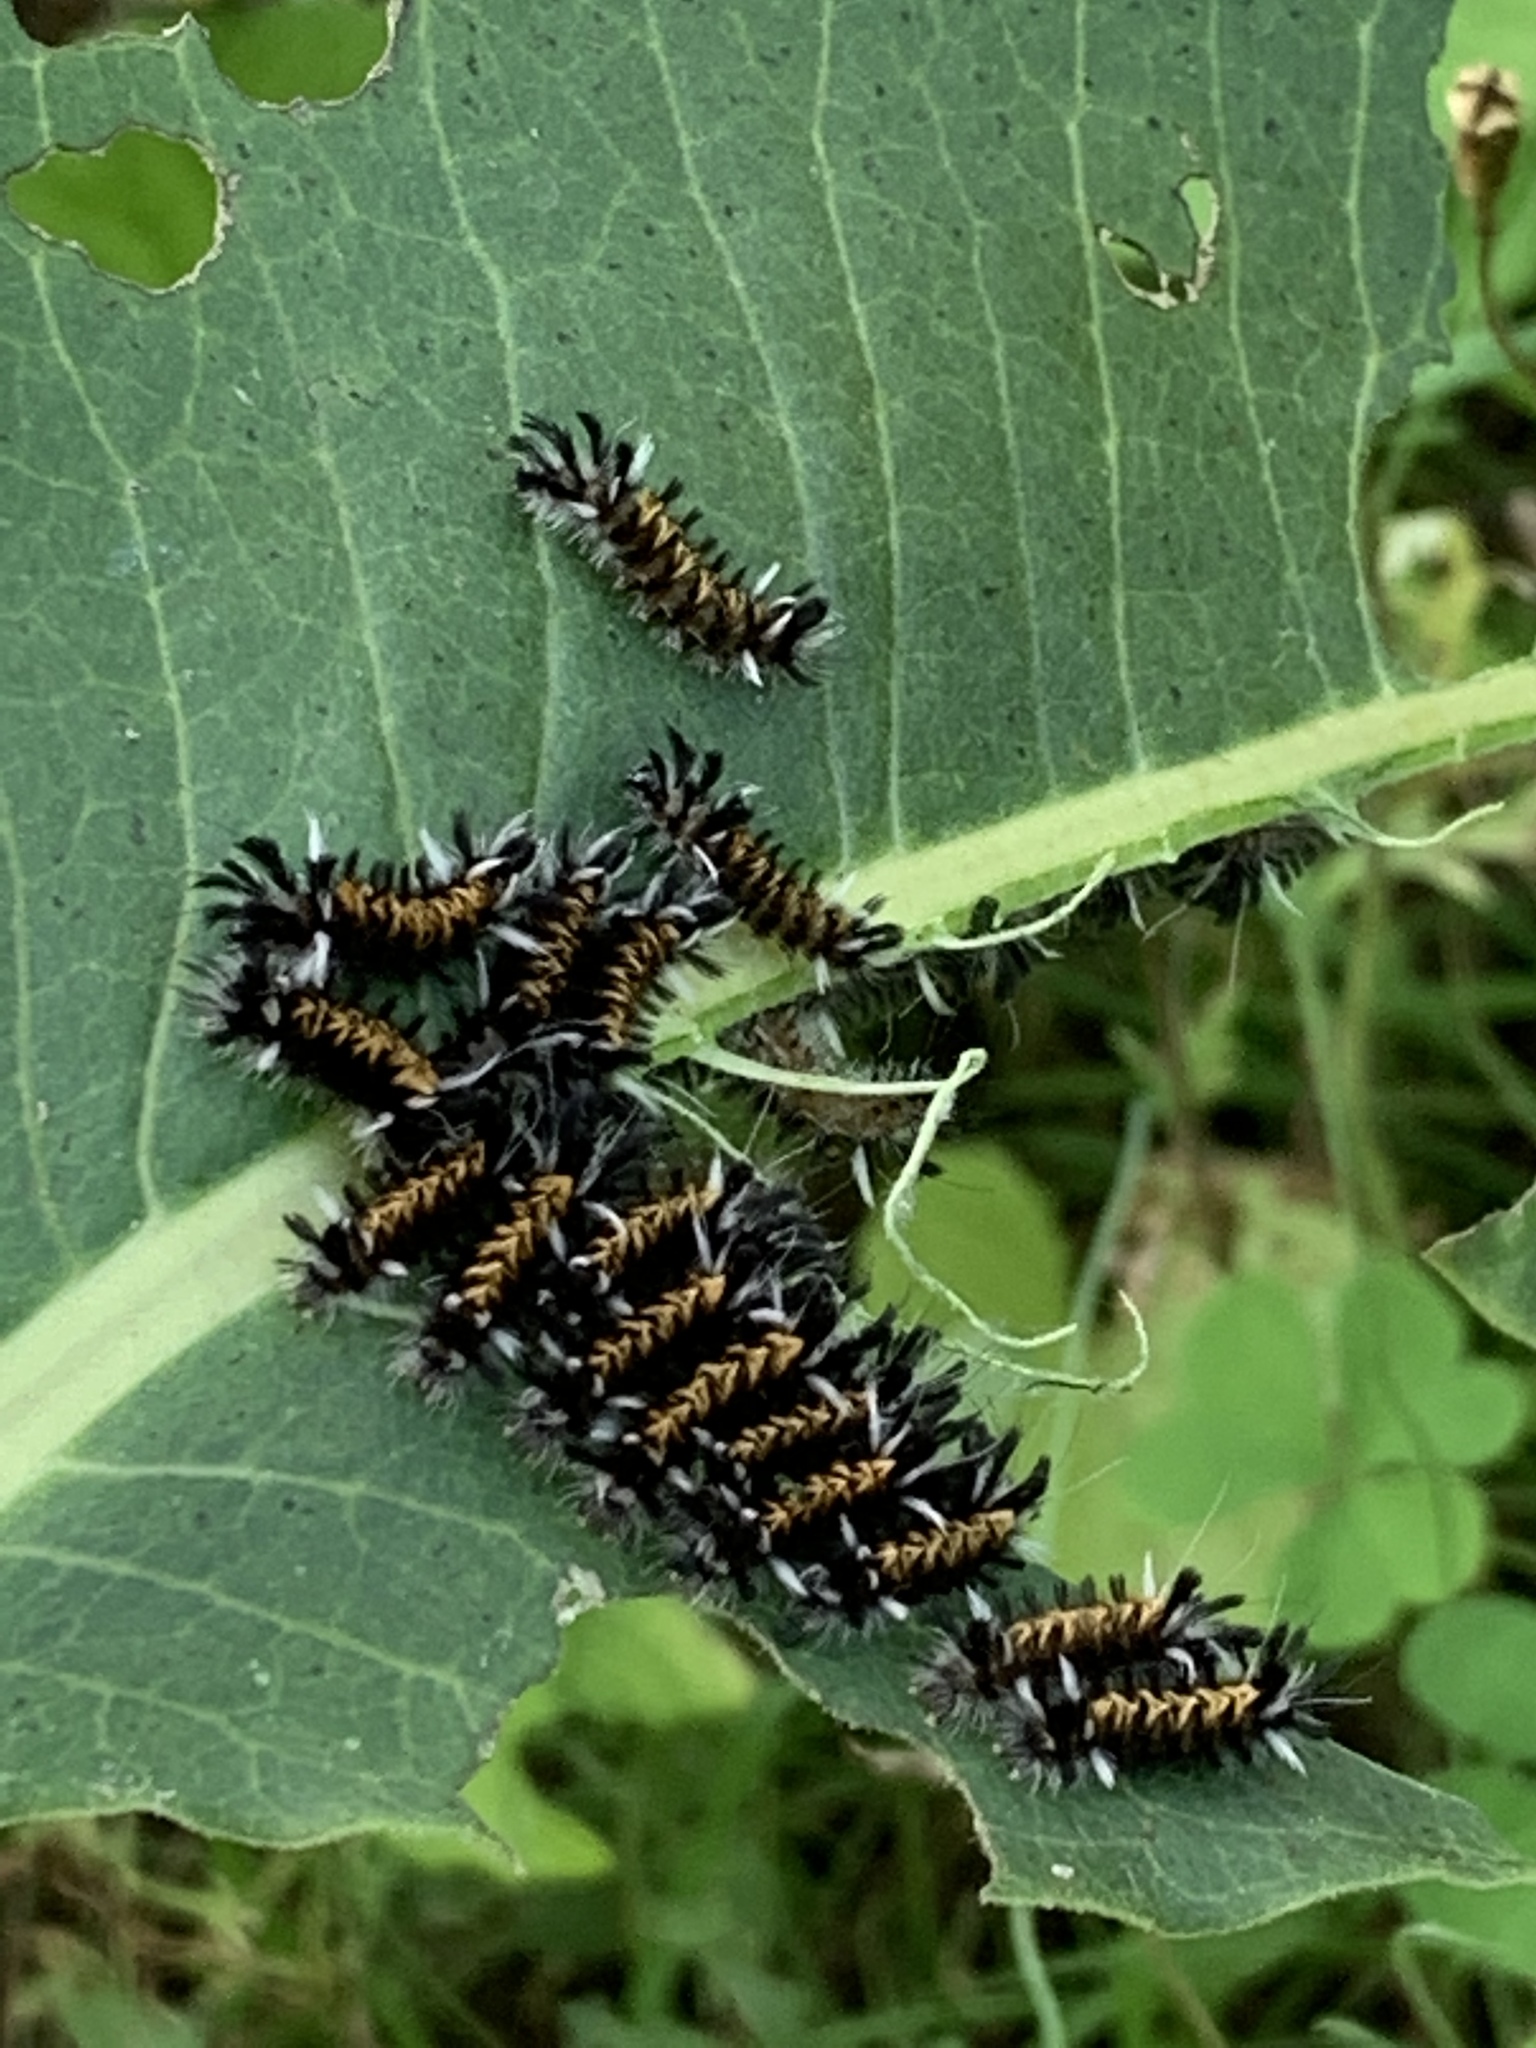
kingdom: Animalia
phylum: Arthropoda
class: Insecta
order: Lepidoptera
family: Erebidae
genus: Euchaetes
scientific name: Euchaetes egle
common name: Milkweed tussock moth
